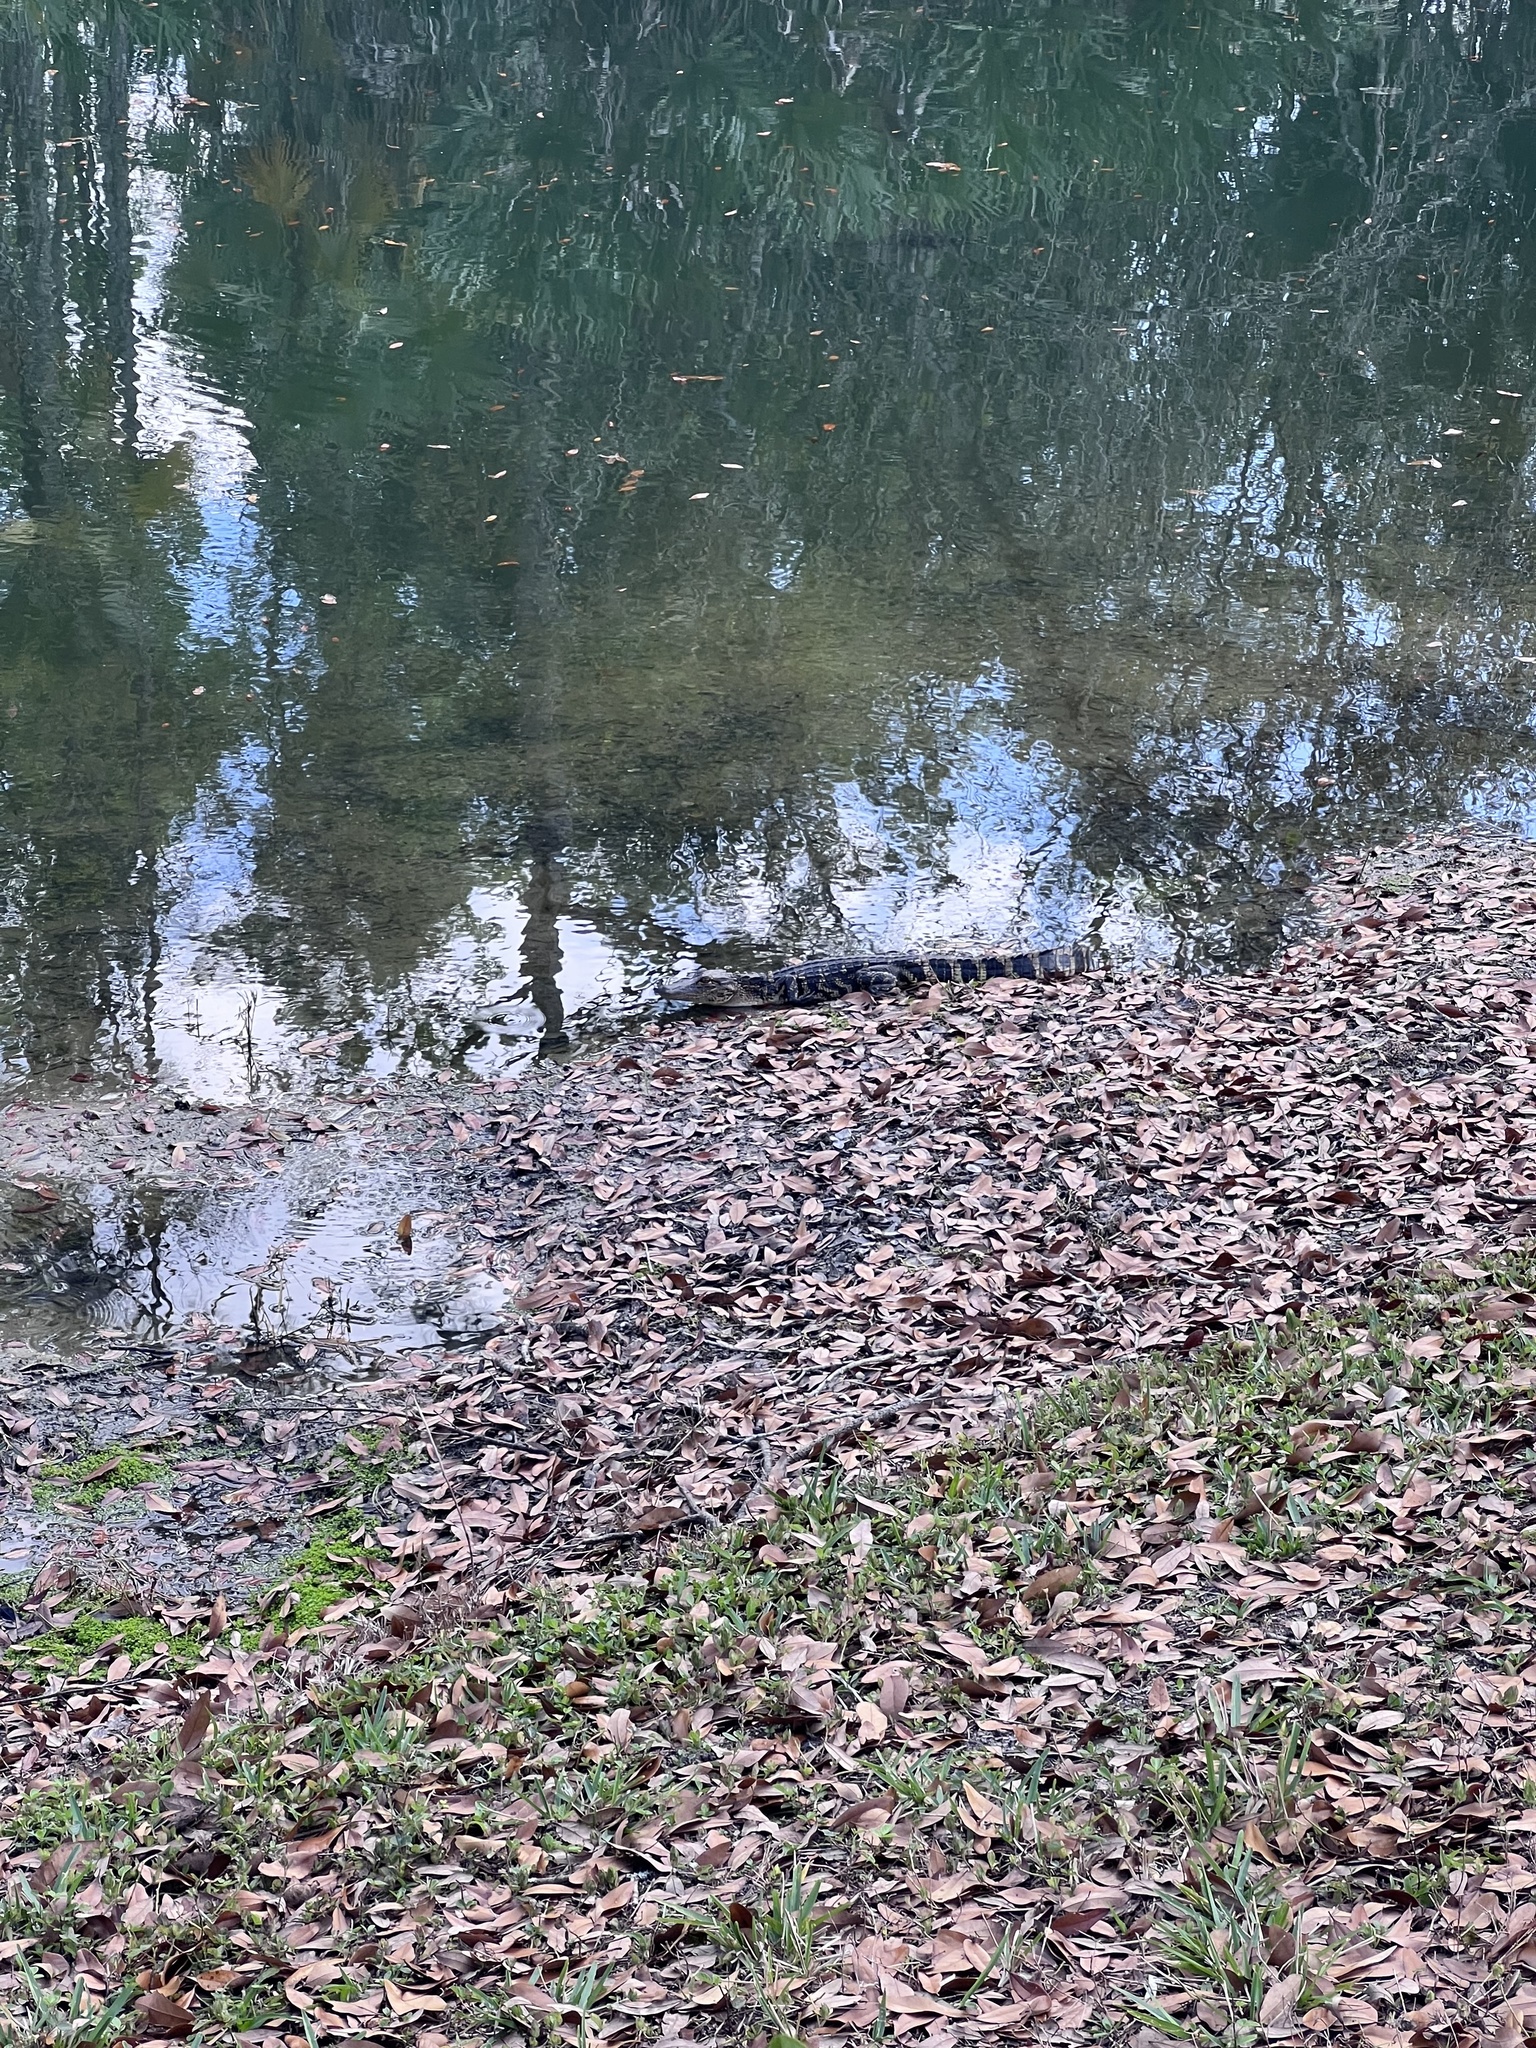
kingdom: Animalia
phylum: Chordata
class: Crocodylia
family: Alligatoridae
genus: Alligator
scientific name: Alligator mississippiensis
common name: American alligator
